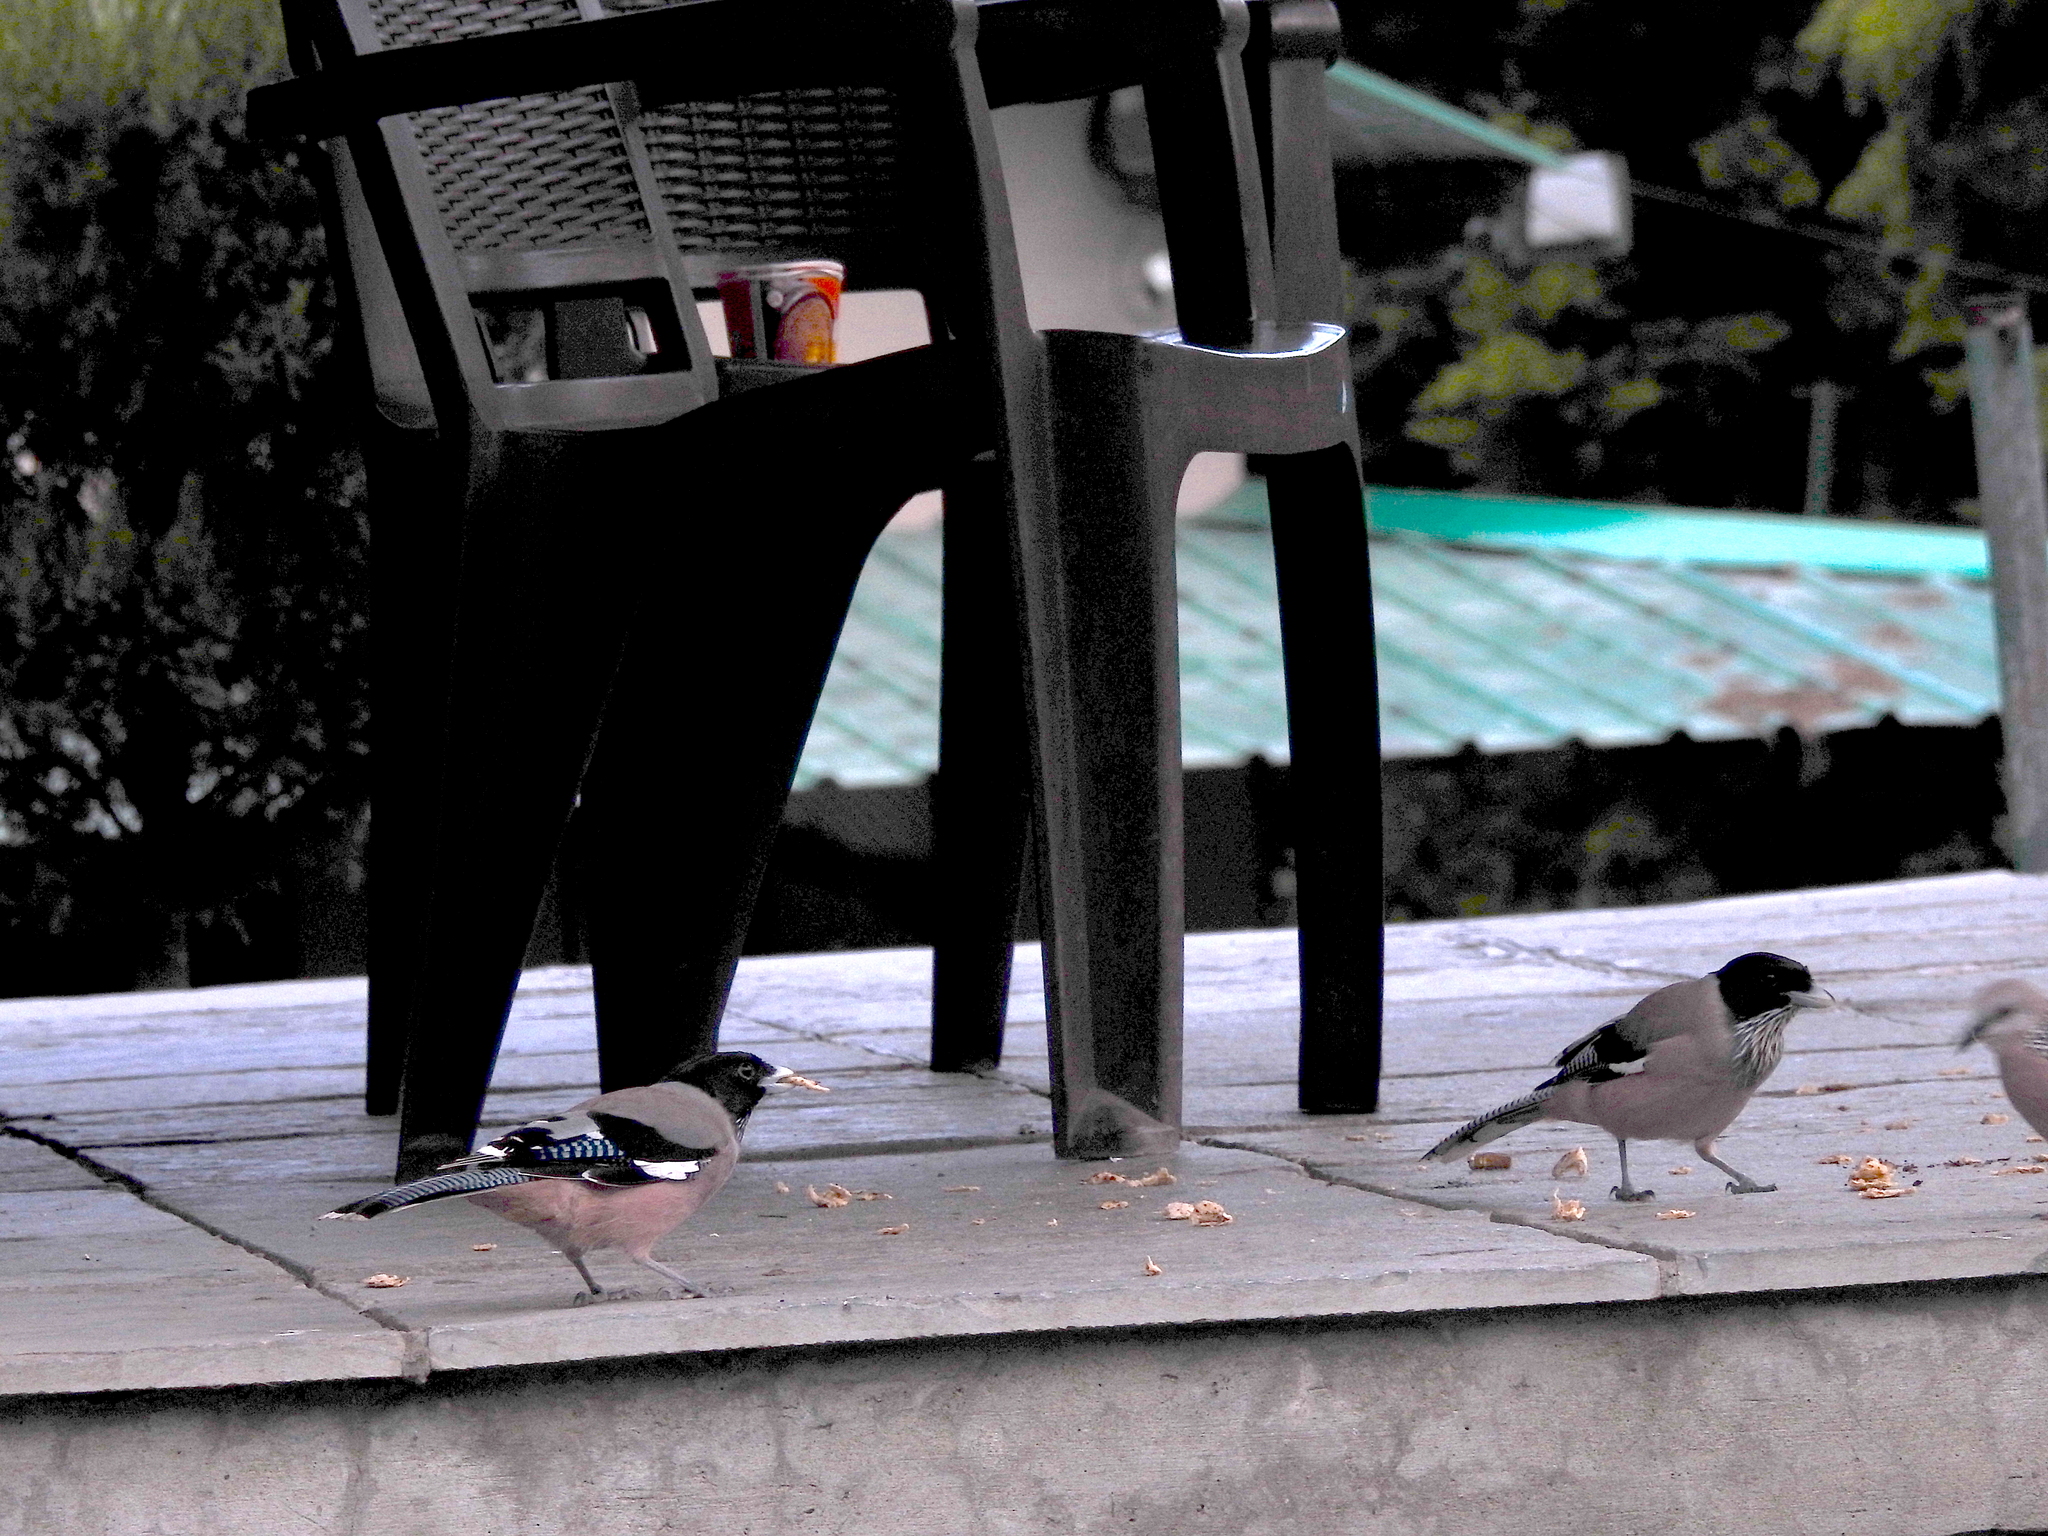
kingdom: Animalia
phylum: Chordata
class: Aves
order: Passeriformes
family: Corvidae
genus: Garrulus
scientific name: Garrulus lanceolatus
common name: Black-headed jay
